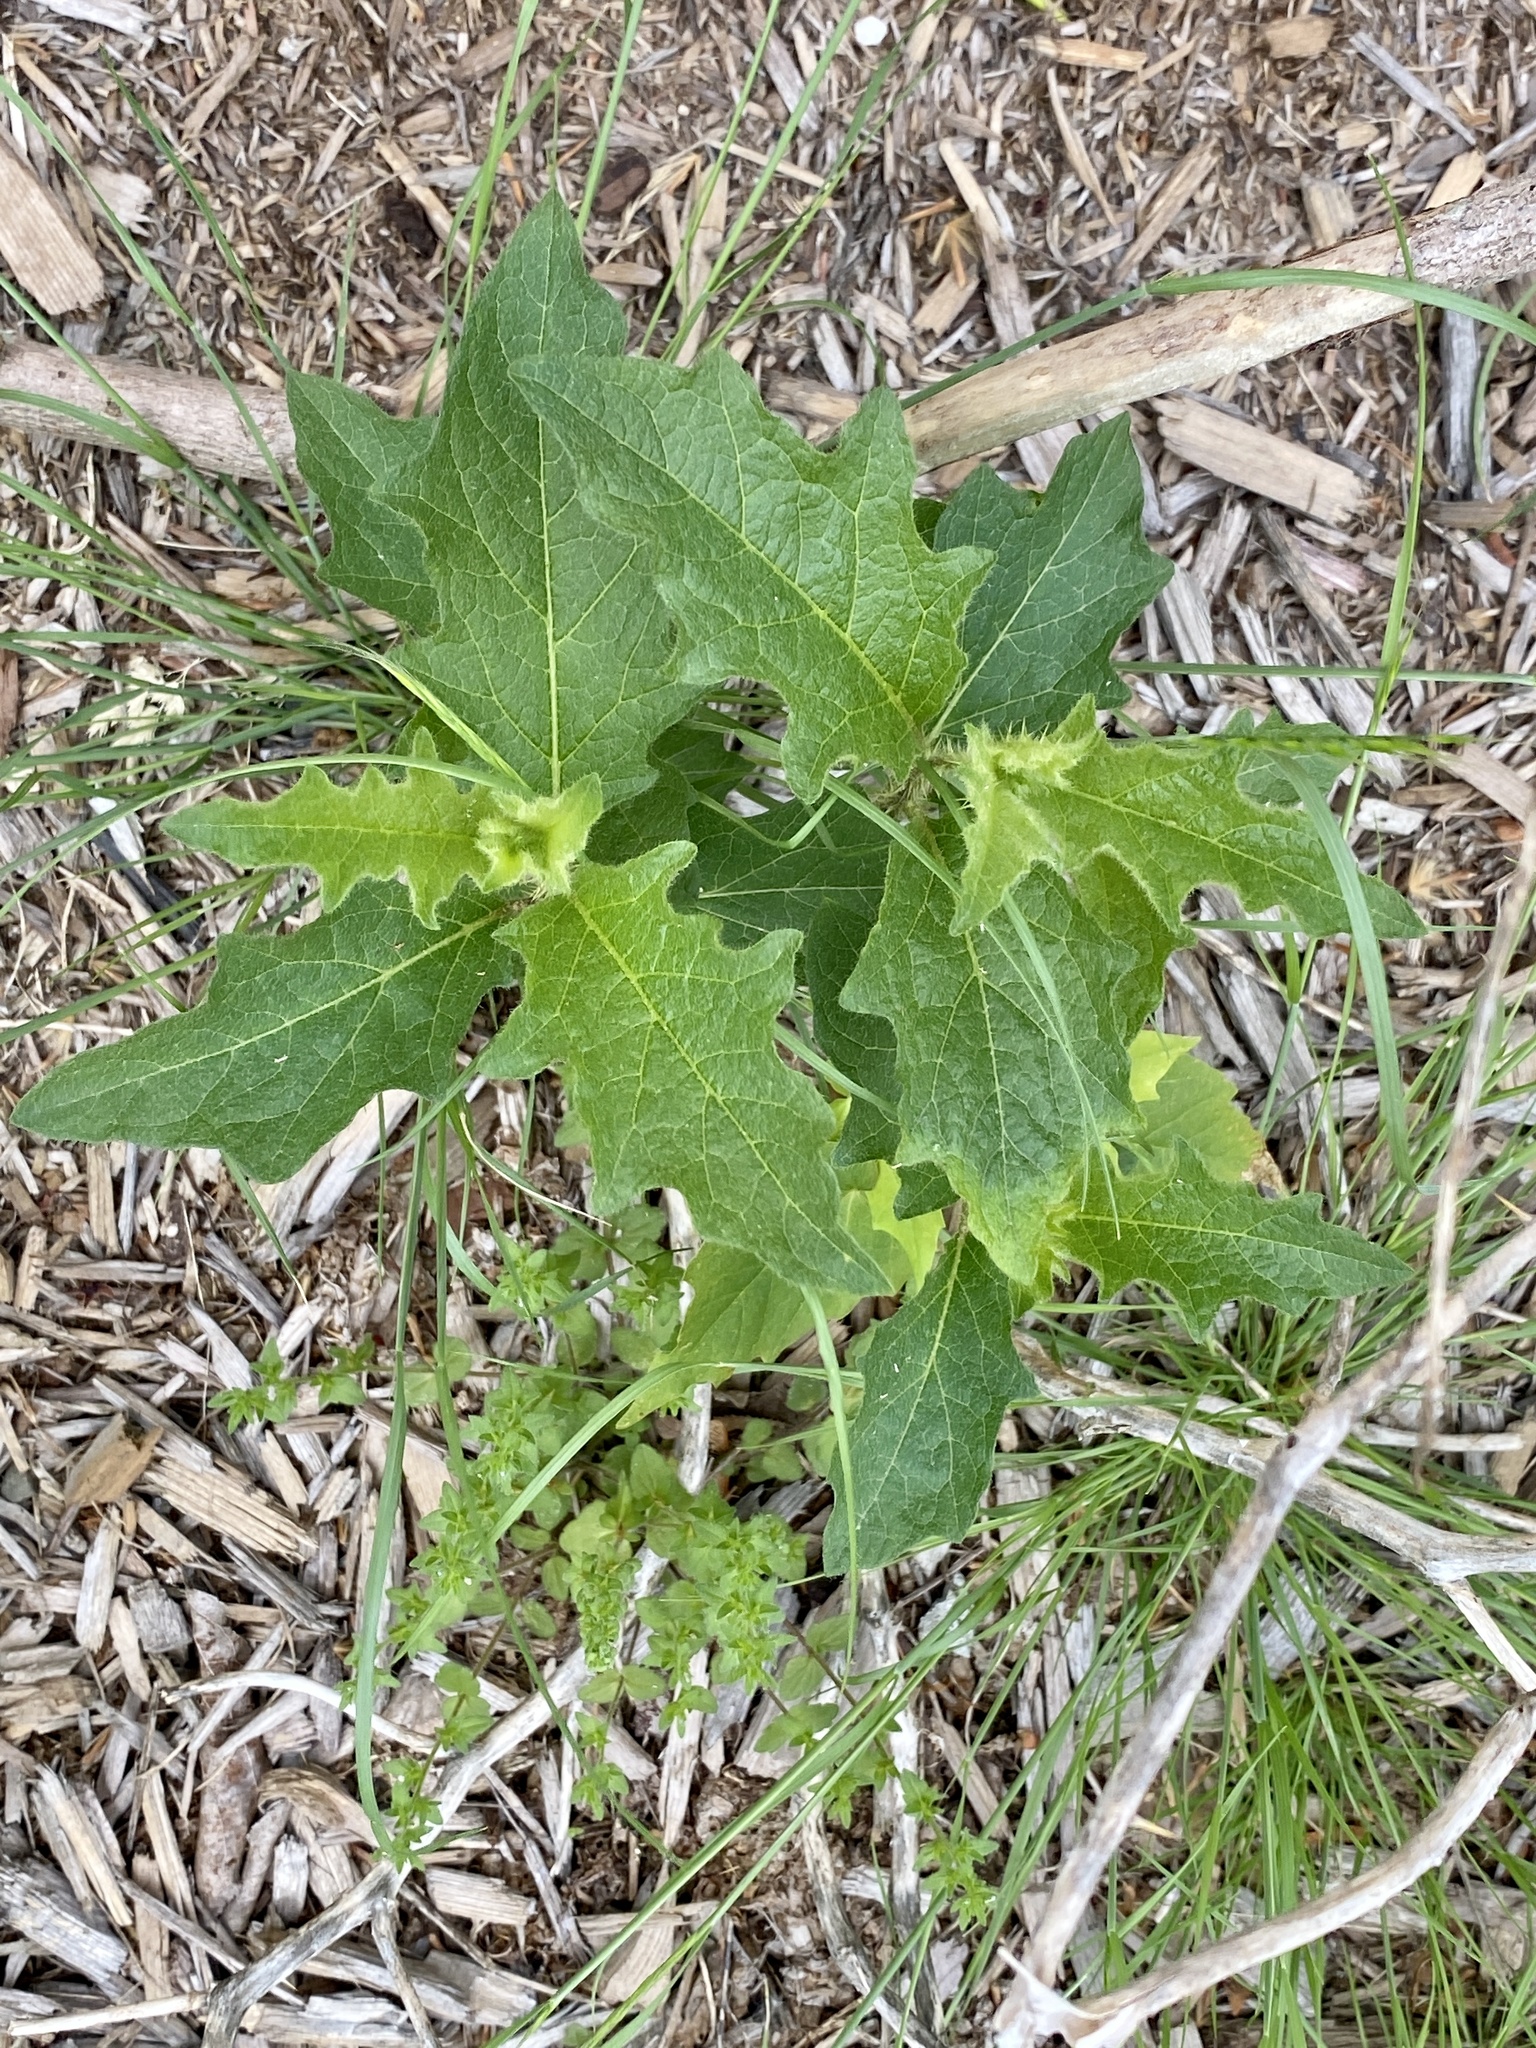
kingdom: Plantae
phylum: Tracheophyta
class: Magnoliopsida
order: Solanales
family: Solanaceae
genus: Solanum
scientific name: Solanum carolinense
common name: Horse-nettle
